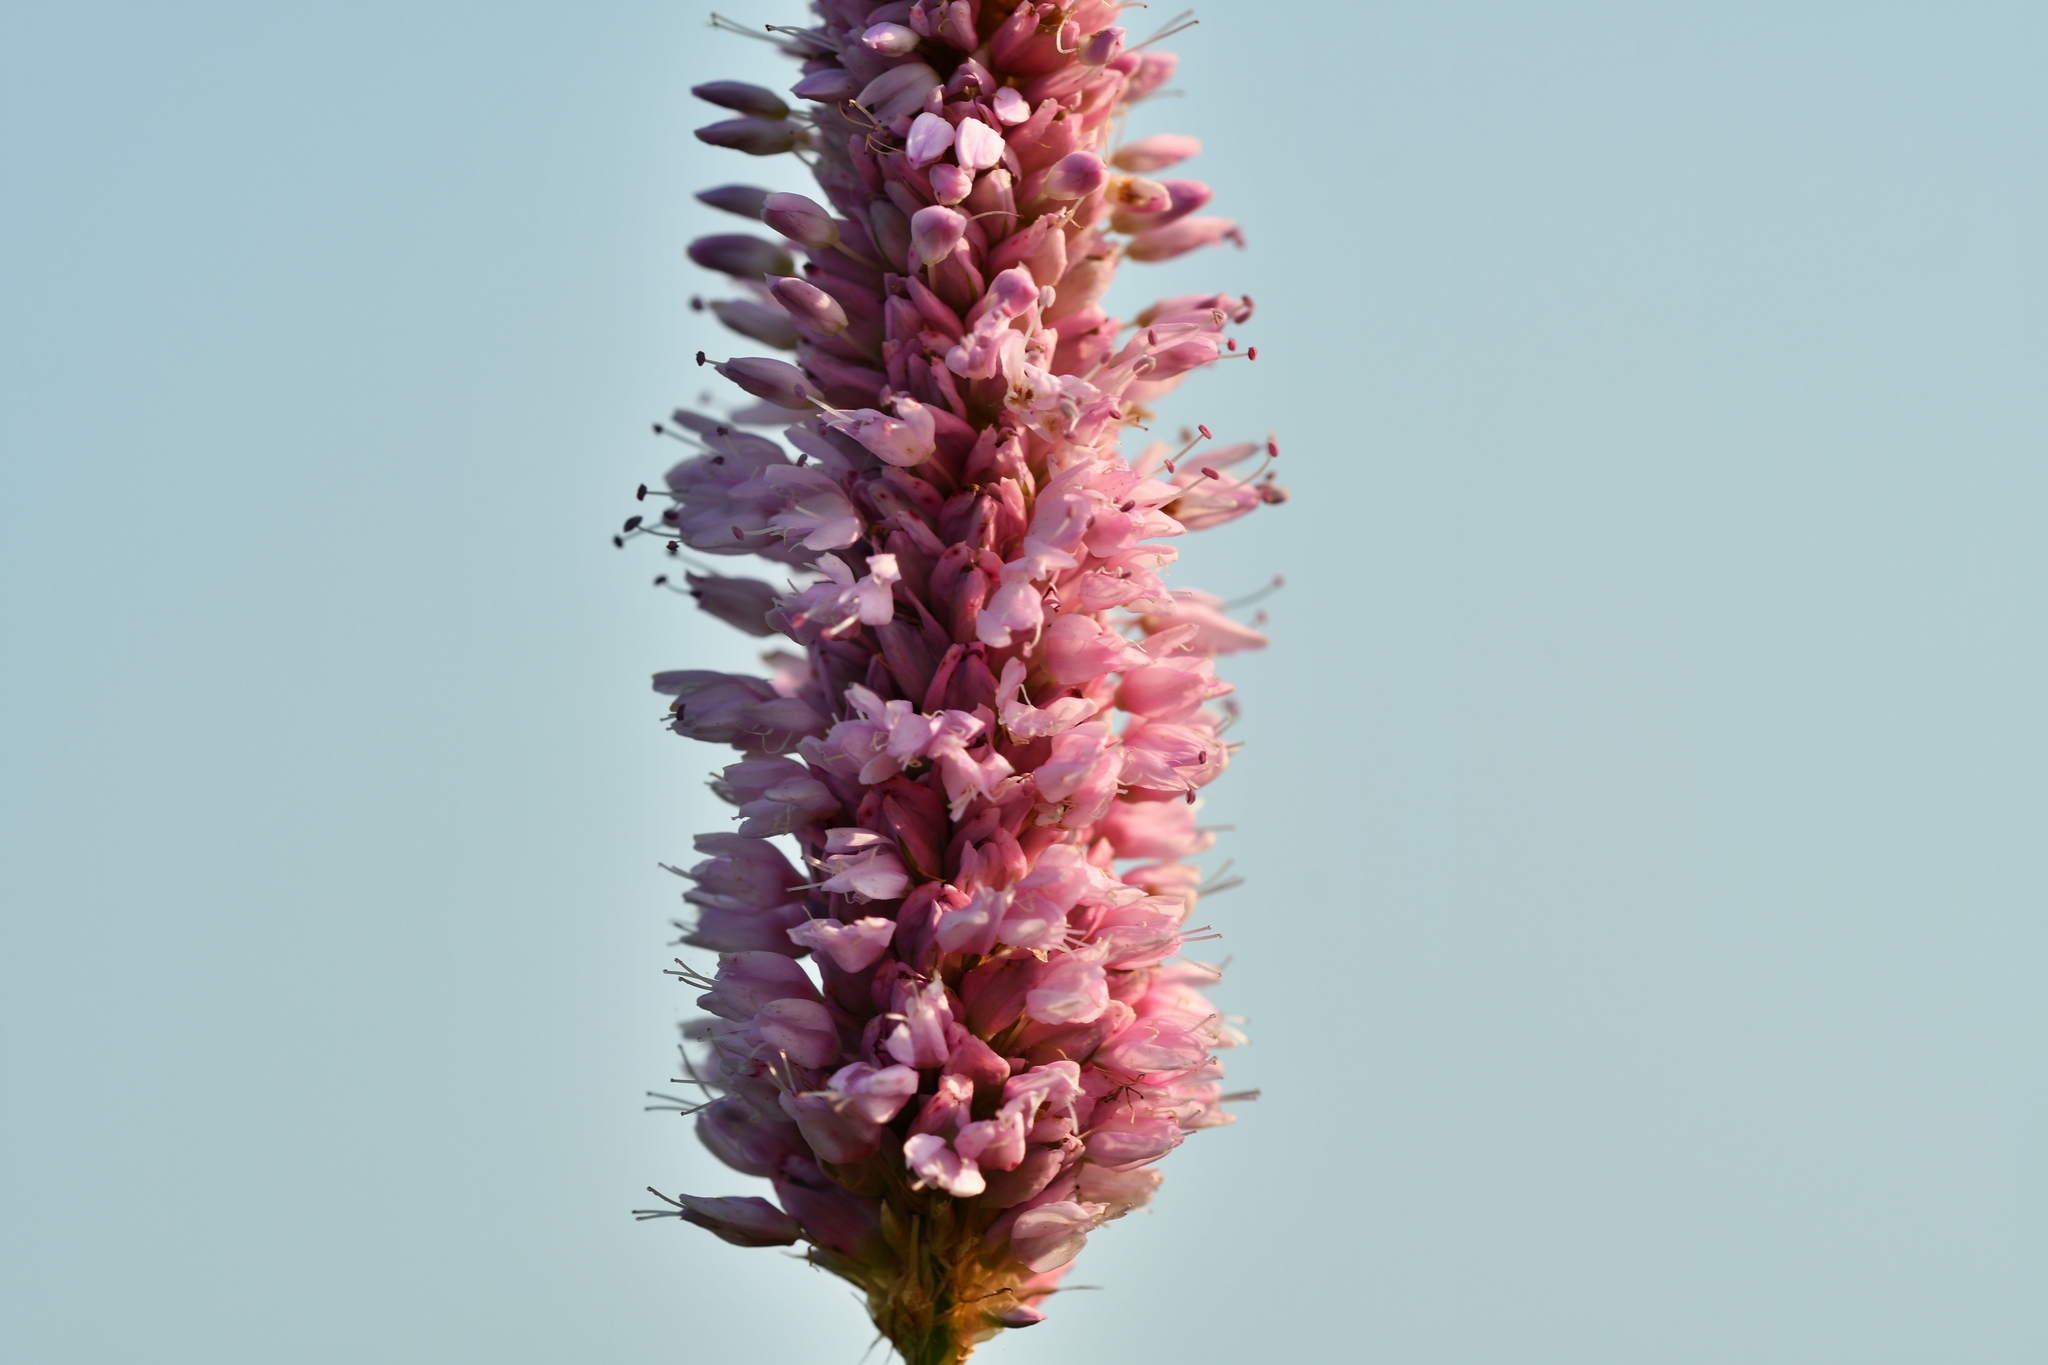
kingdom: Plantae
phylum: Tracheophyta
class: Magnoliopsida
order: Caryophyllales
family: Polygonaceae
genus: Bistorta
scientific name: Bistorta officinalis
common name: Common bistort
